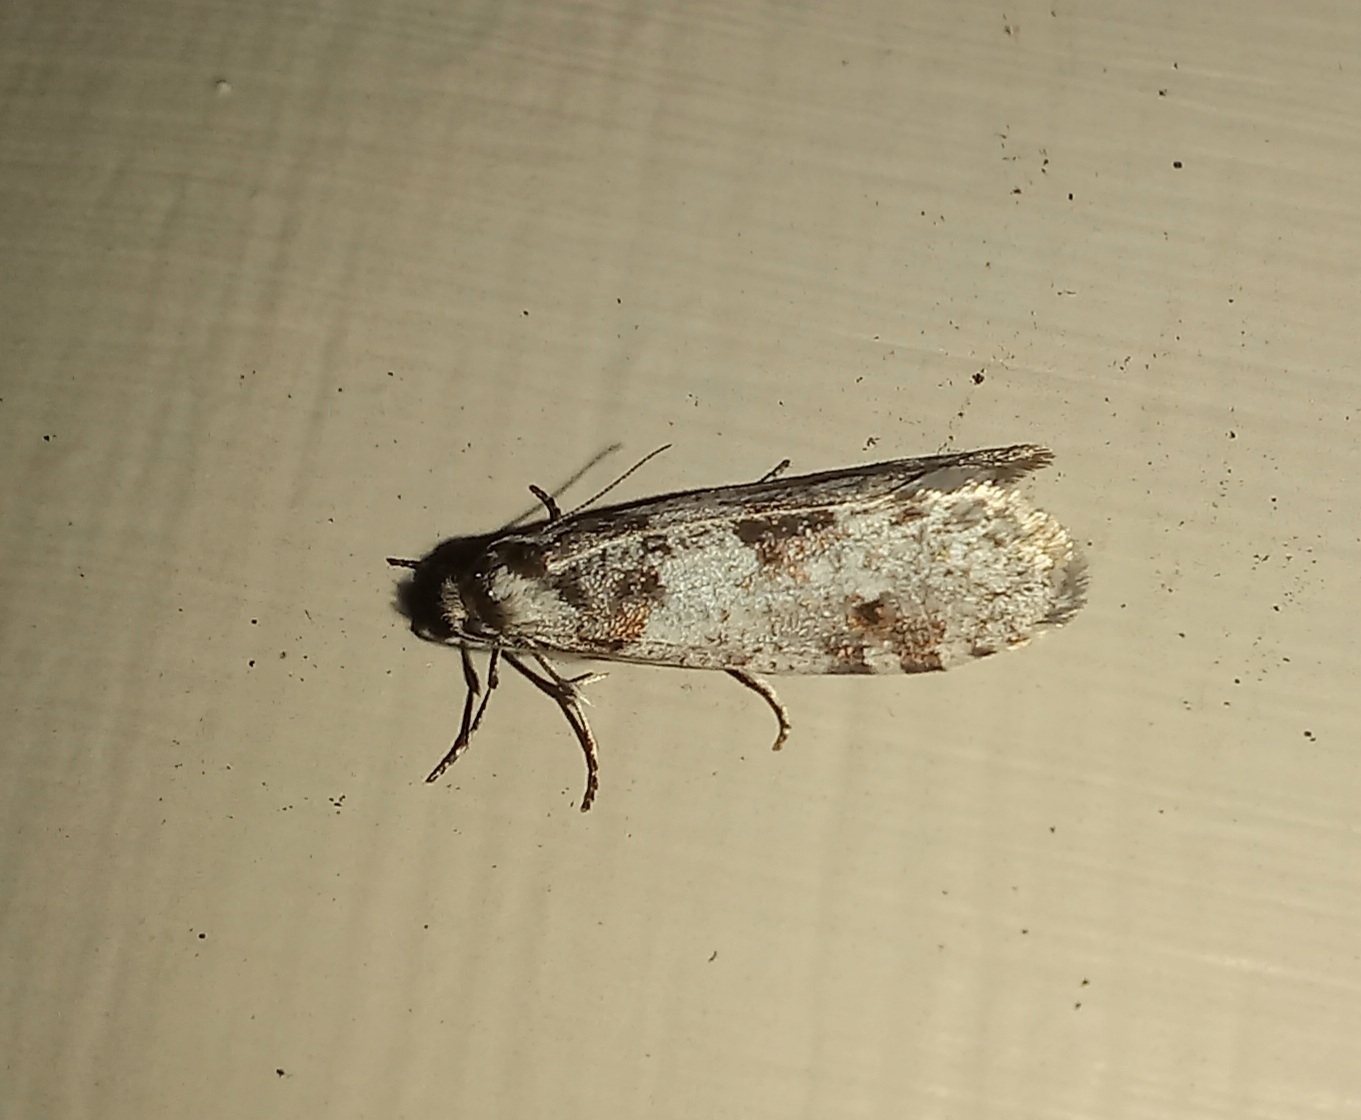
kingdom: Animalia
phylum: Arthropoda
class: Insecta
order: Lepidoptera
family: Psychidae
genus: Lepidoscia
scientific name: Lepidoscia heliochares
